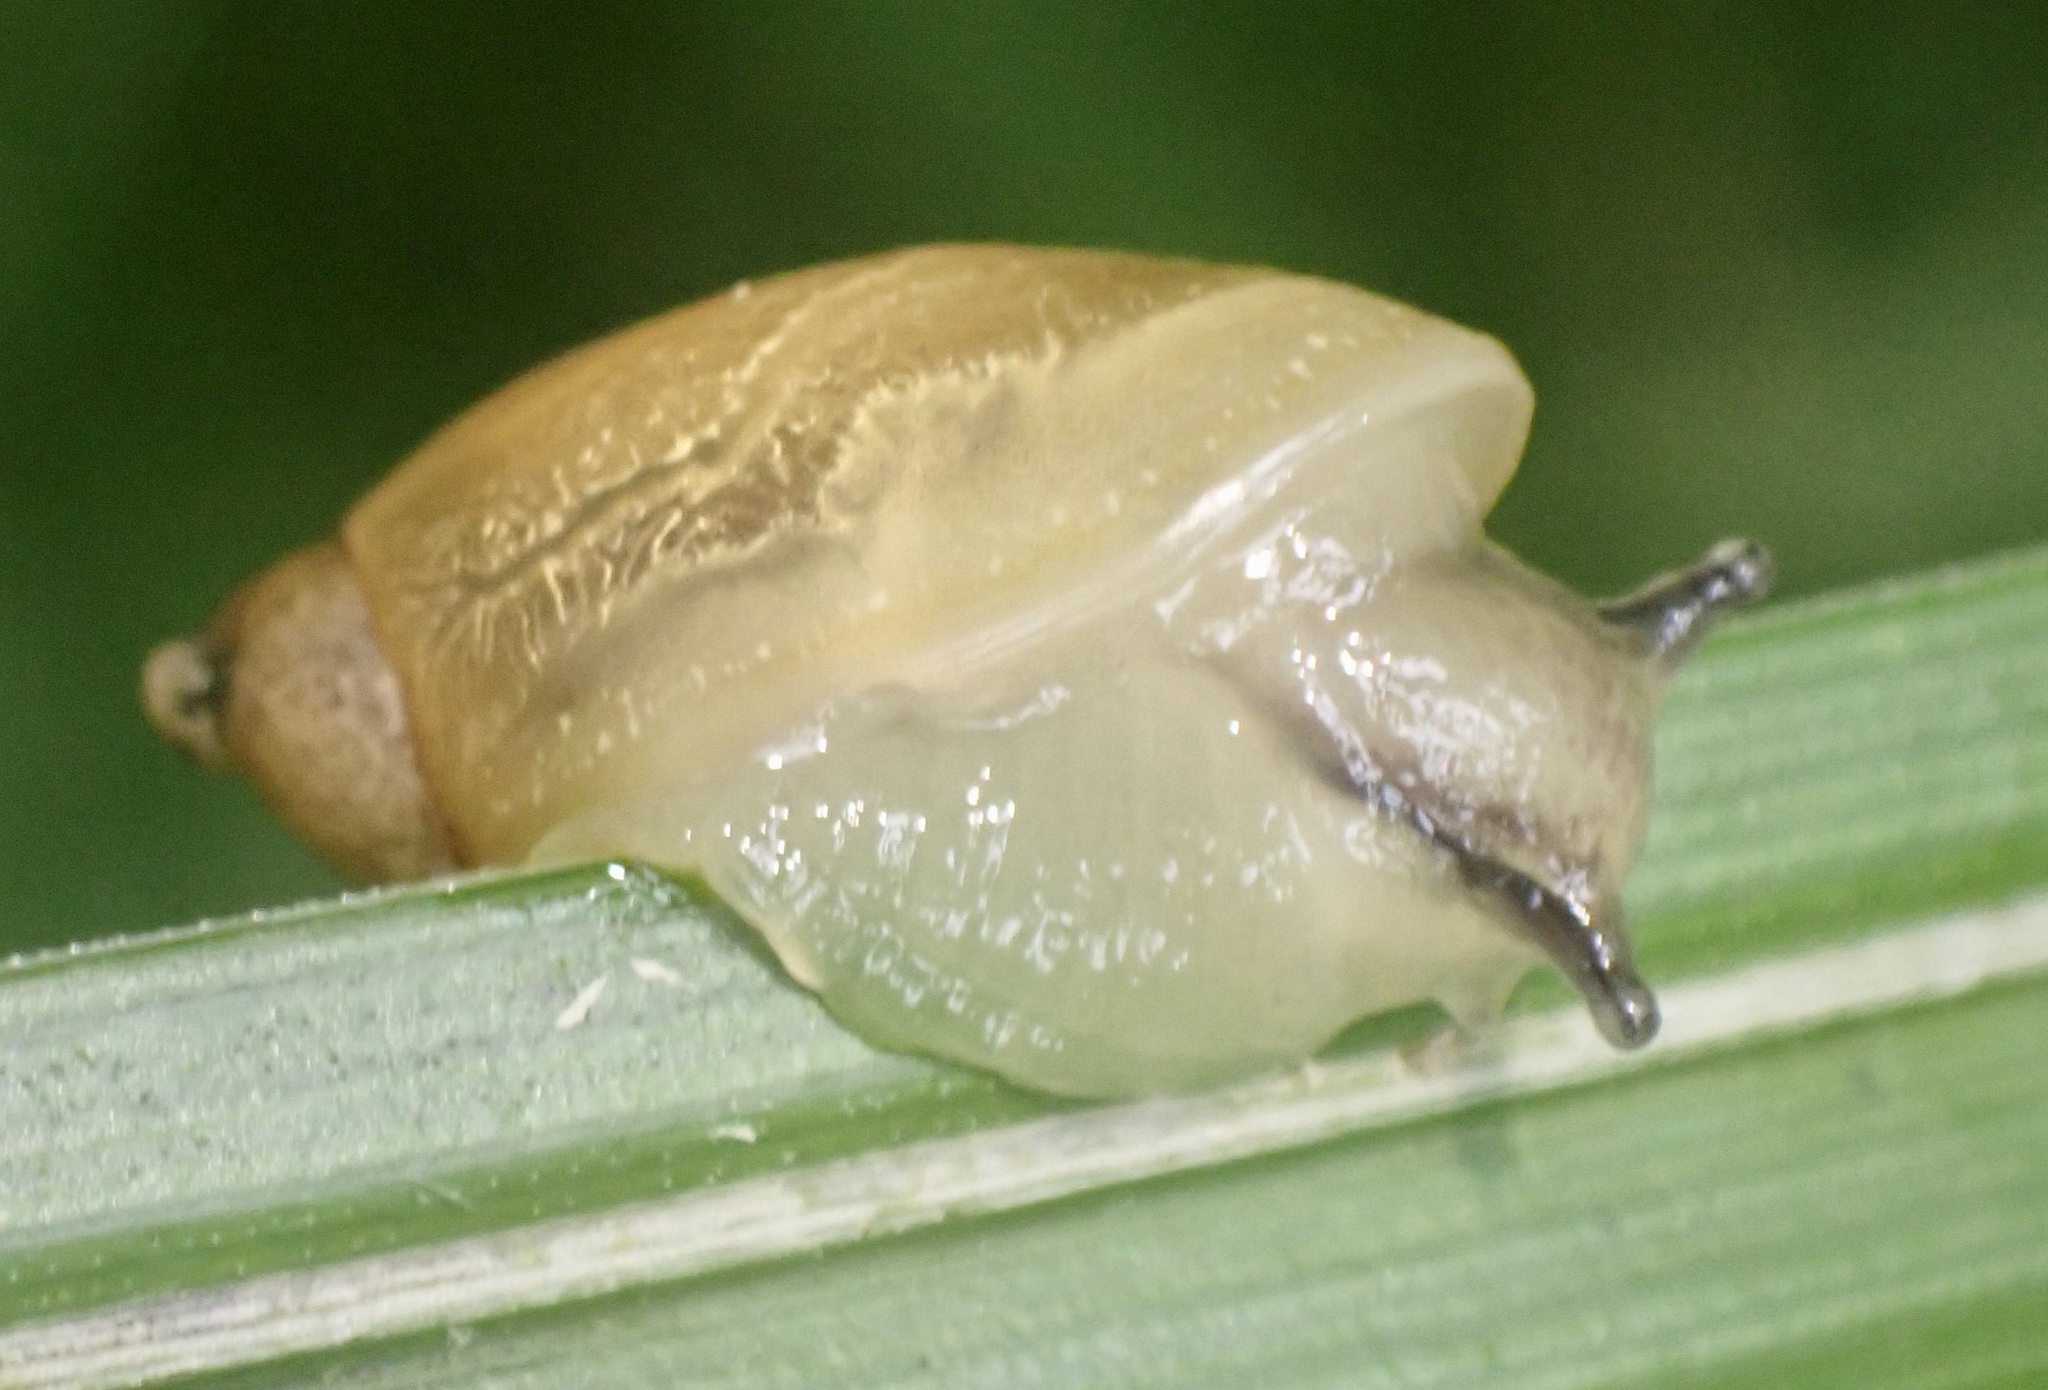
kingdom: Animalia
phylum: Mollusca
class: Gastropoda
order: Stylommatophora
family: Succineidae
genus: Succinea
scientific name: Succinea putris
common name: European ambersnail
